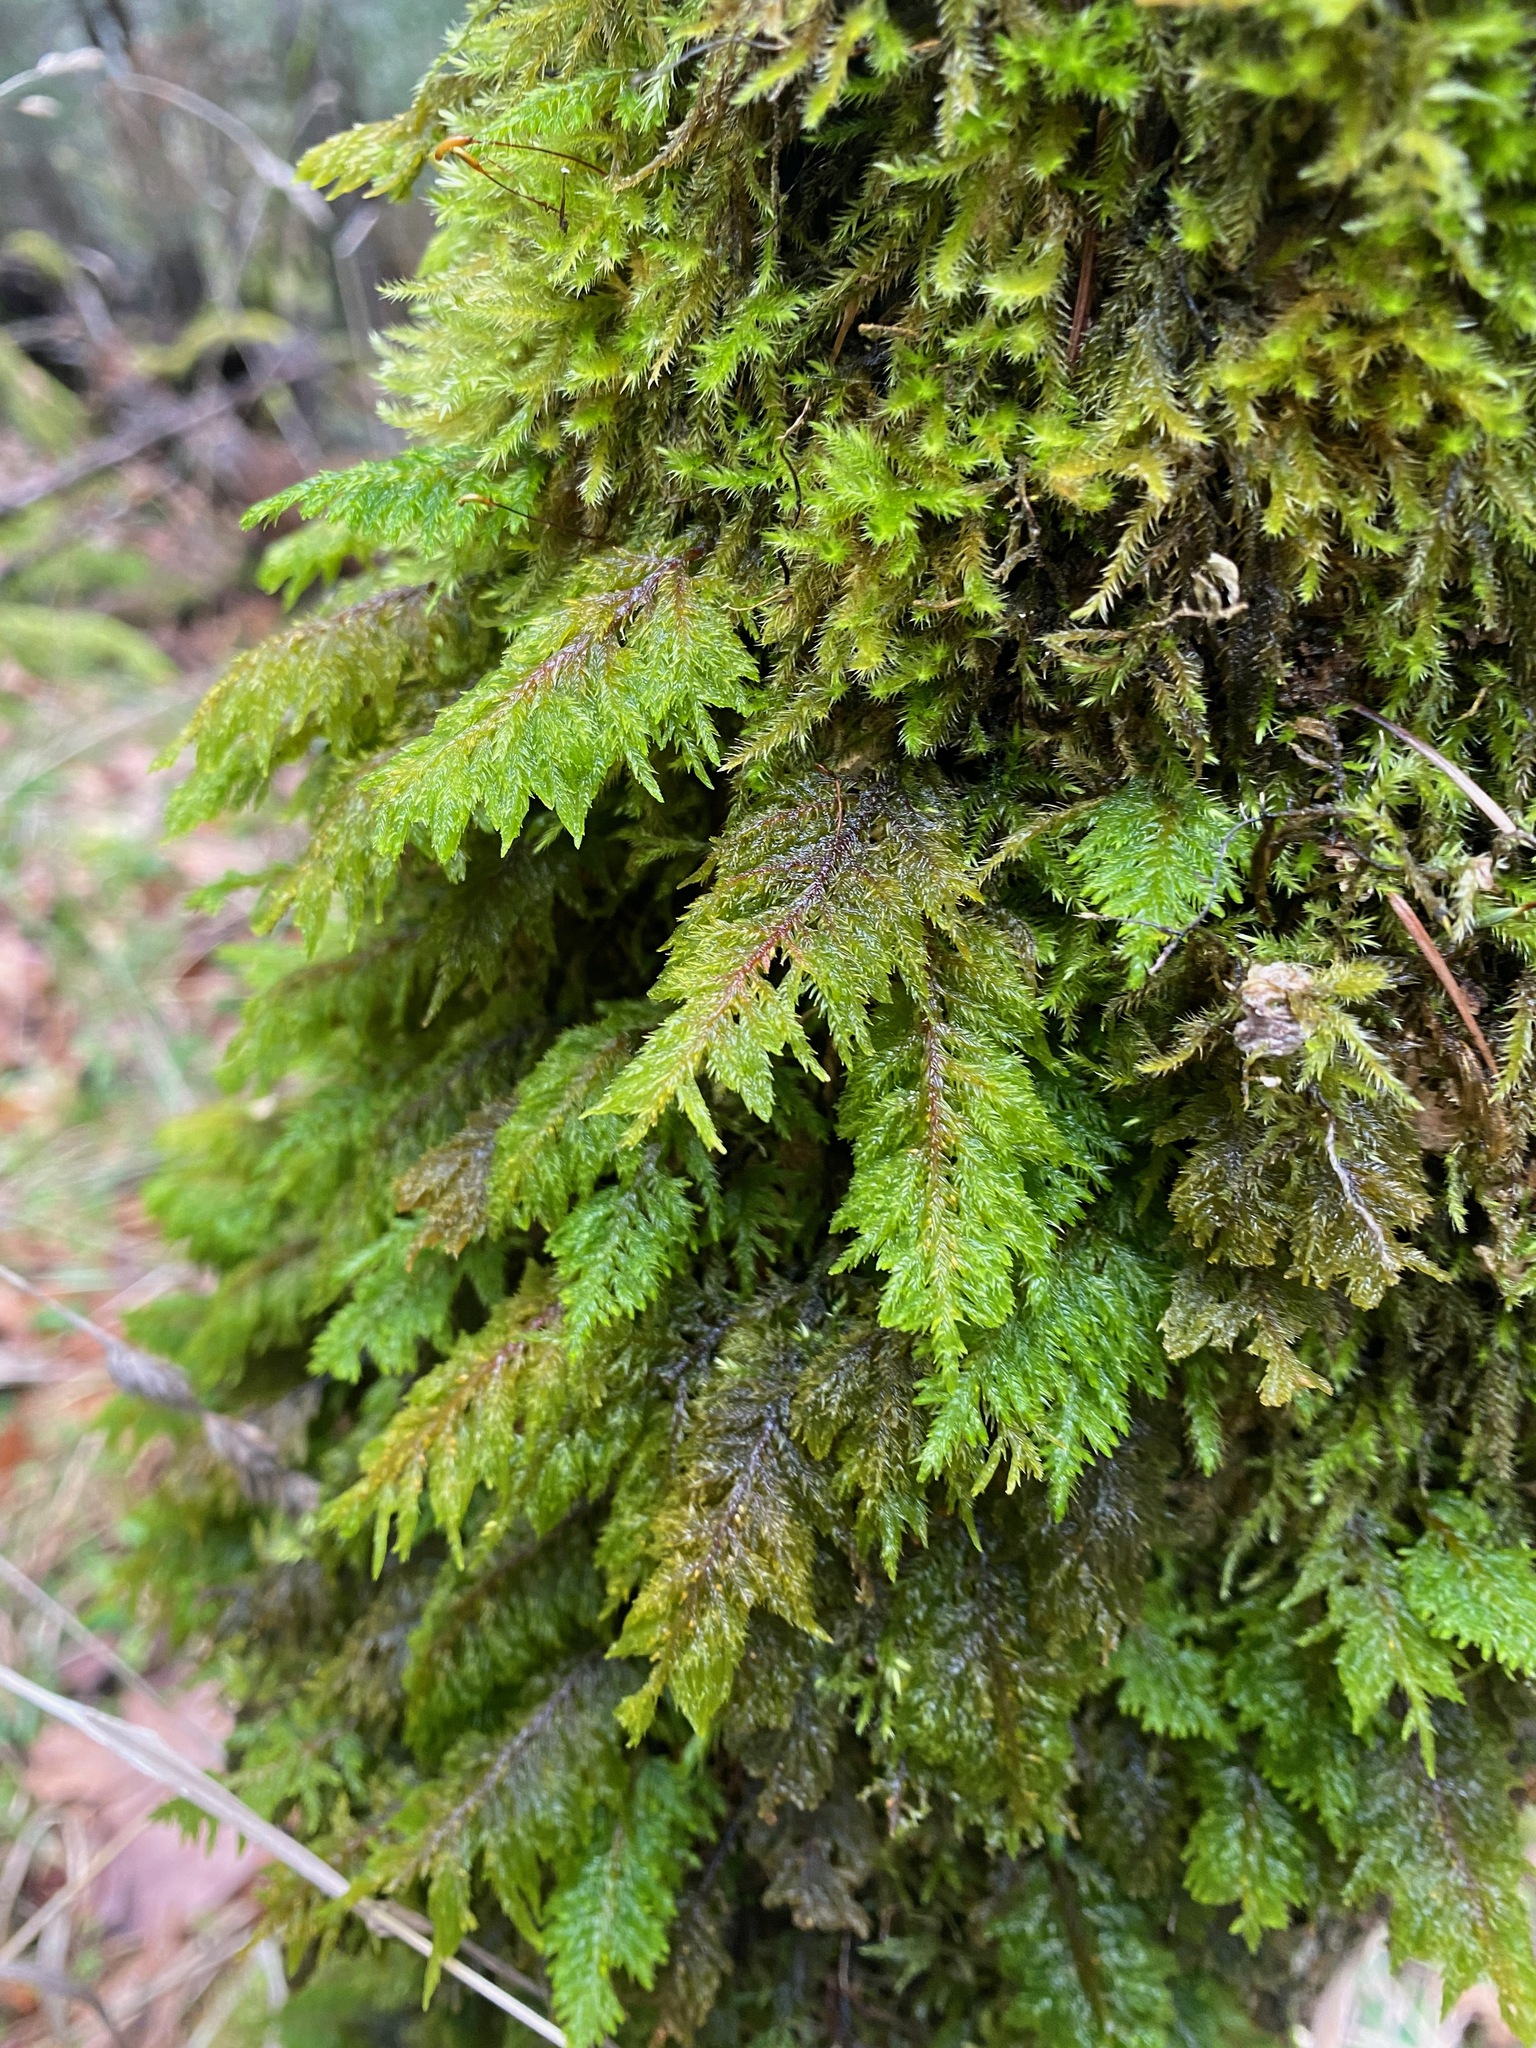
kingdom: Plantae
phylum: Bryophyta
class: Bryopsida
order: Hypnales
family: Cryphaeaceae
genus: Dendroalsia
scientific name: Dendroalsia abietina
